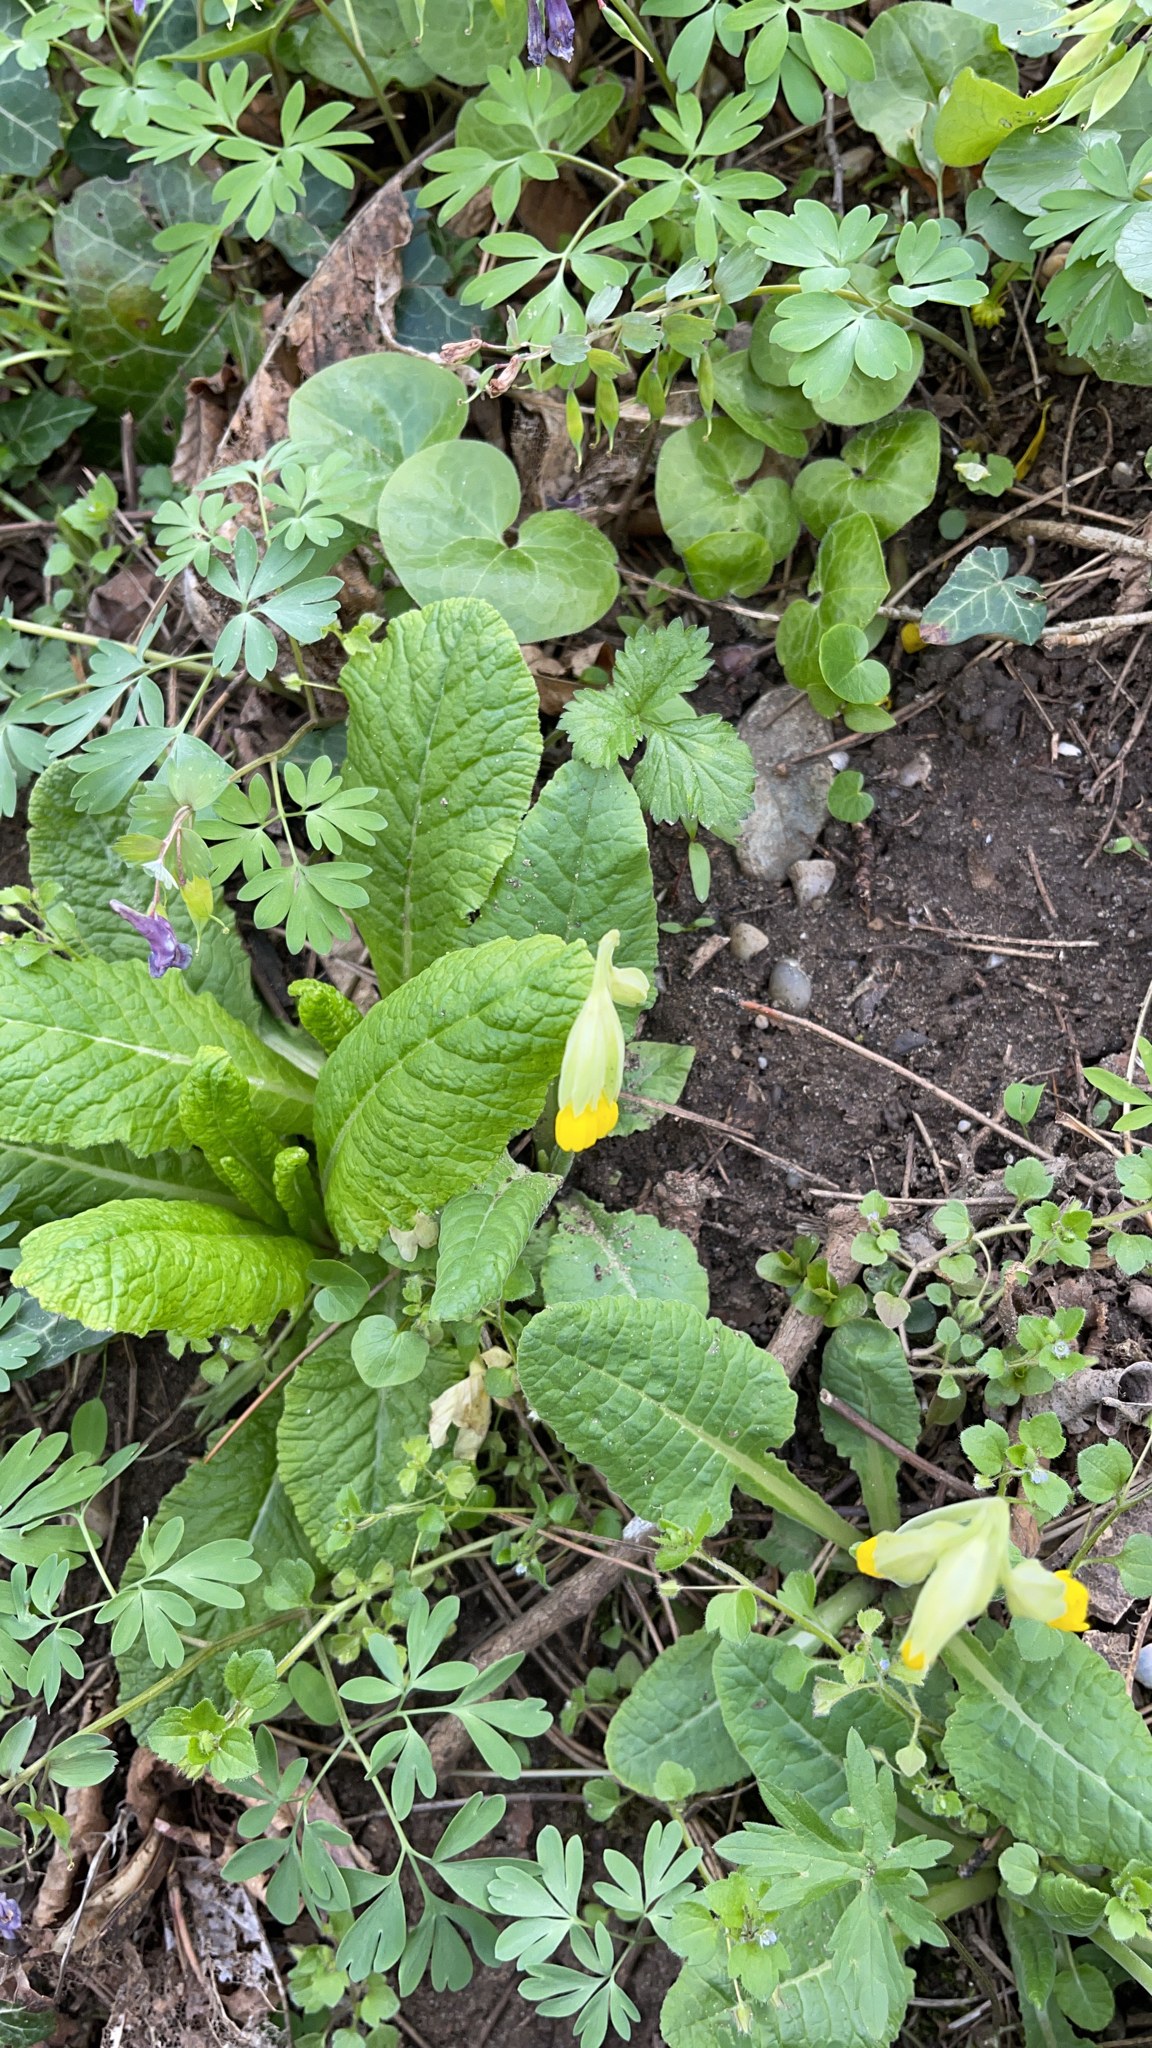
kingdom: Plantae
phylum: Tracheophyta
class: Magnoliopsida
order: Ericales
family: Primulaceae
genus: Primula
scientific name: Primula veris
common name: Cowslip
